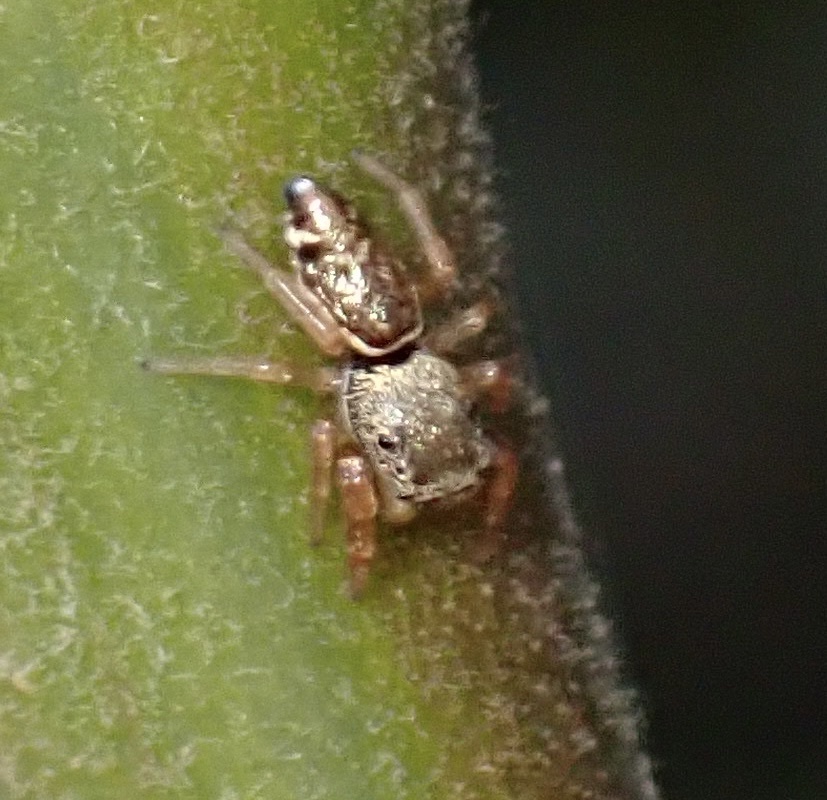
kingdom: Animalia
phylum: Arthropoda
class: Arachnida
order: Araneae
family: Salticidae
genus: Sassacus
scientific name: Sassacus vitis
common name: Jumping spiders
